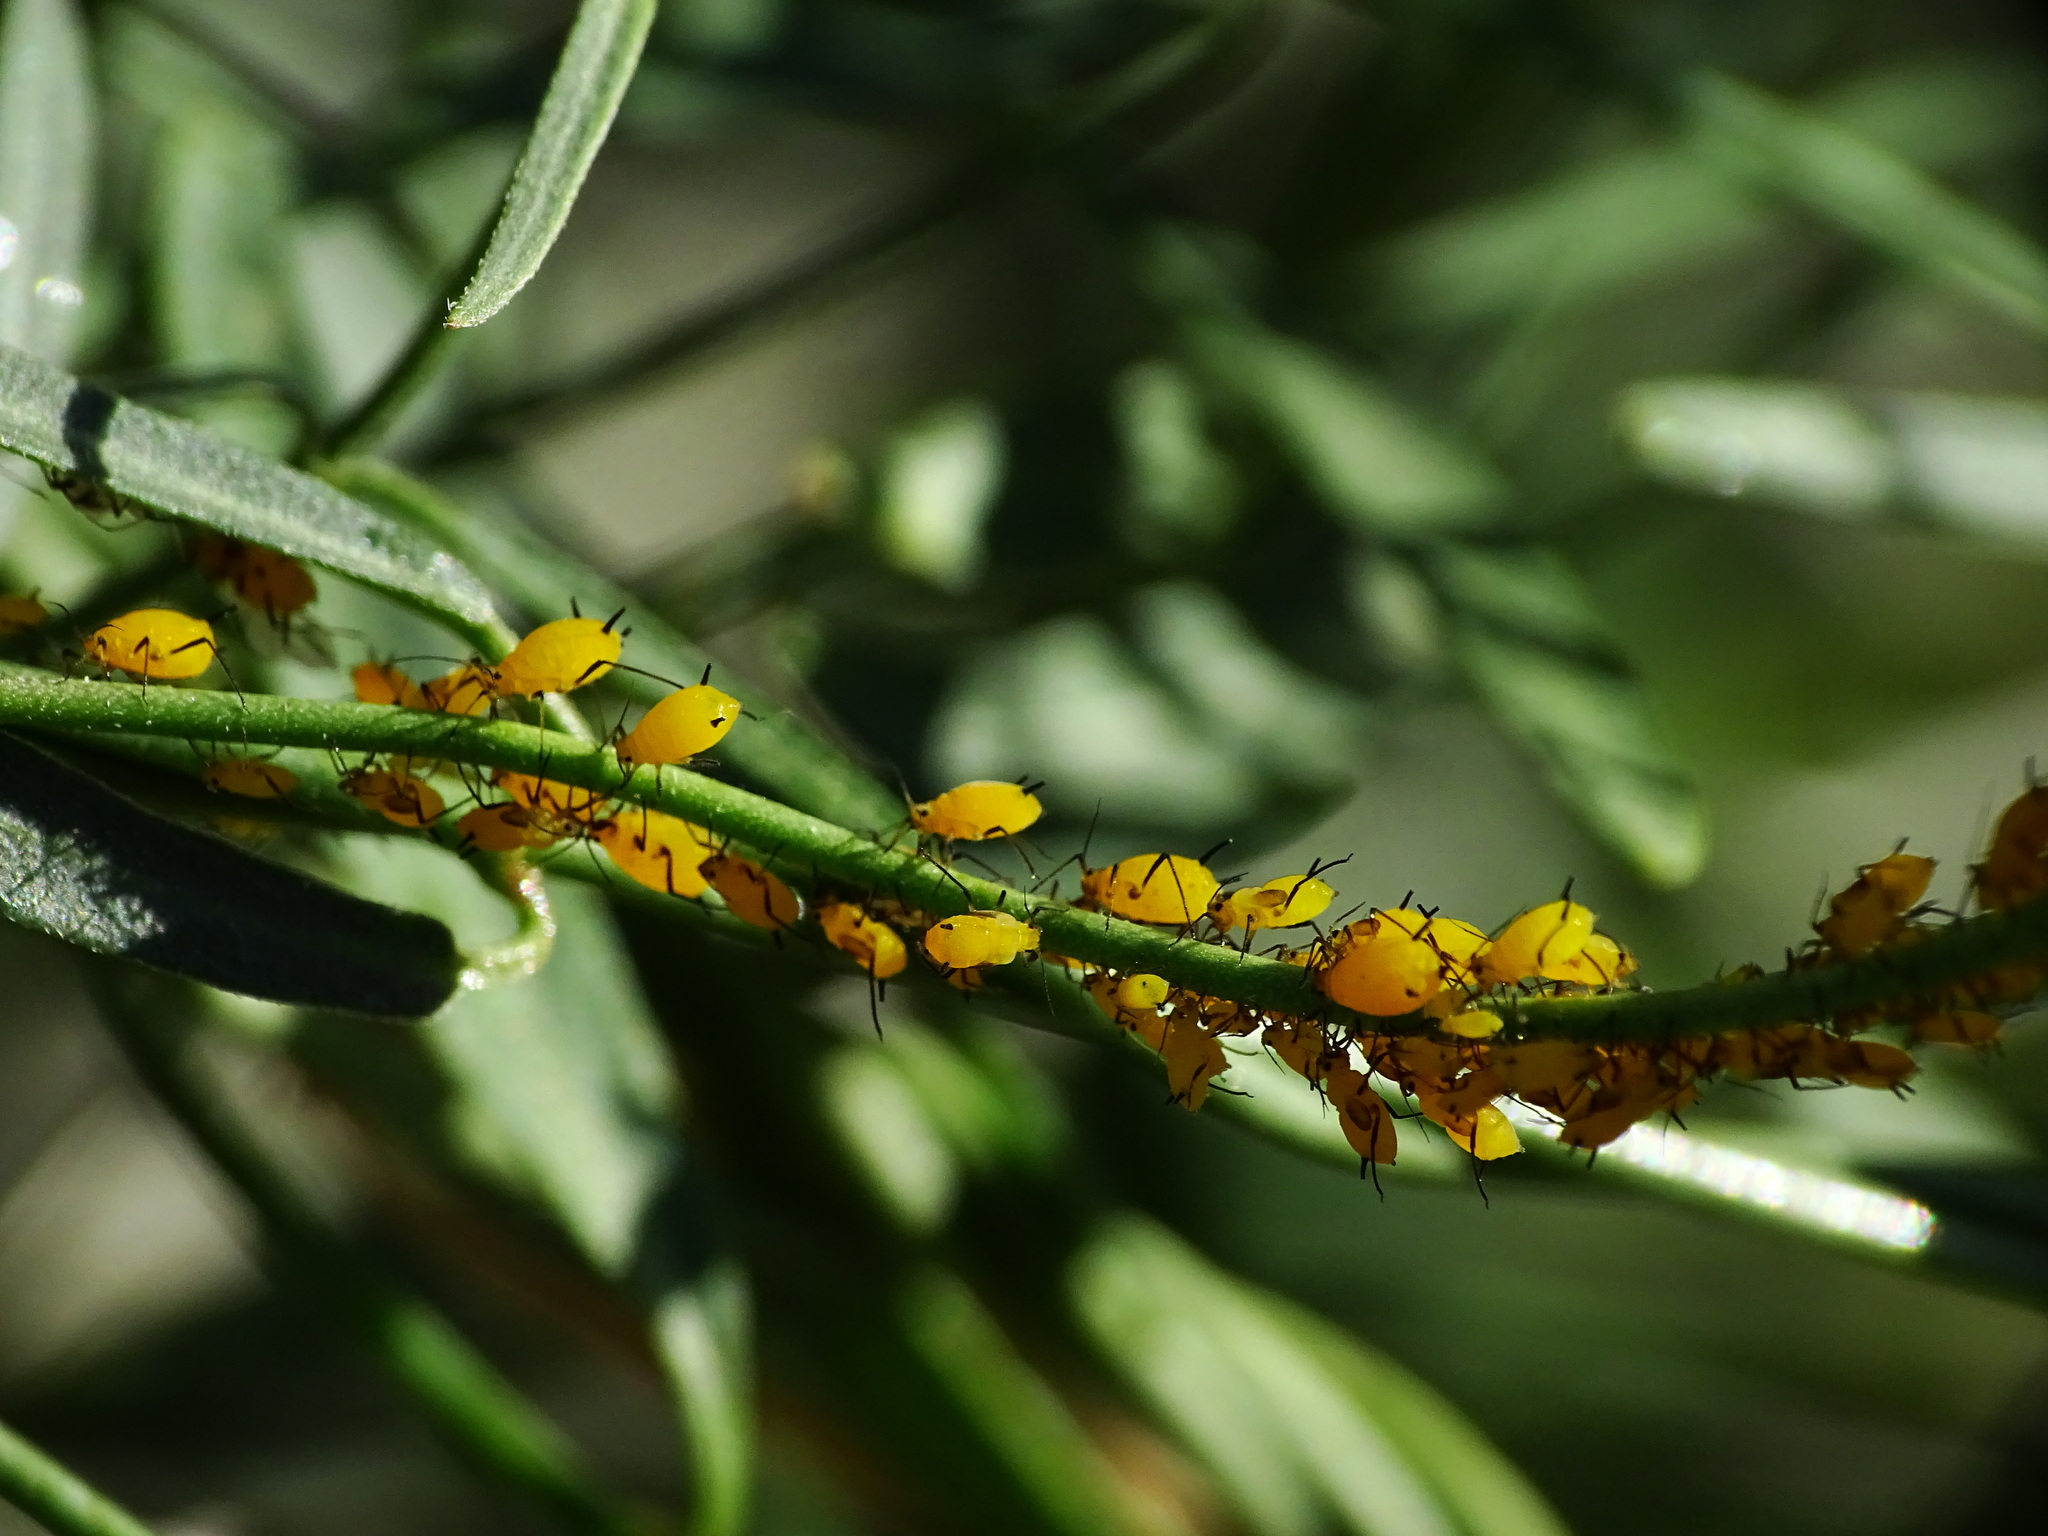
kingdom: Animalia
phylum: Arthropoda
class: Insecta
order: Hemiptera
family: Aphididae
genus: Aphis
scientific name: Aphis nerii
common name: Oleander aphid
